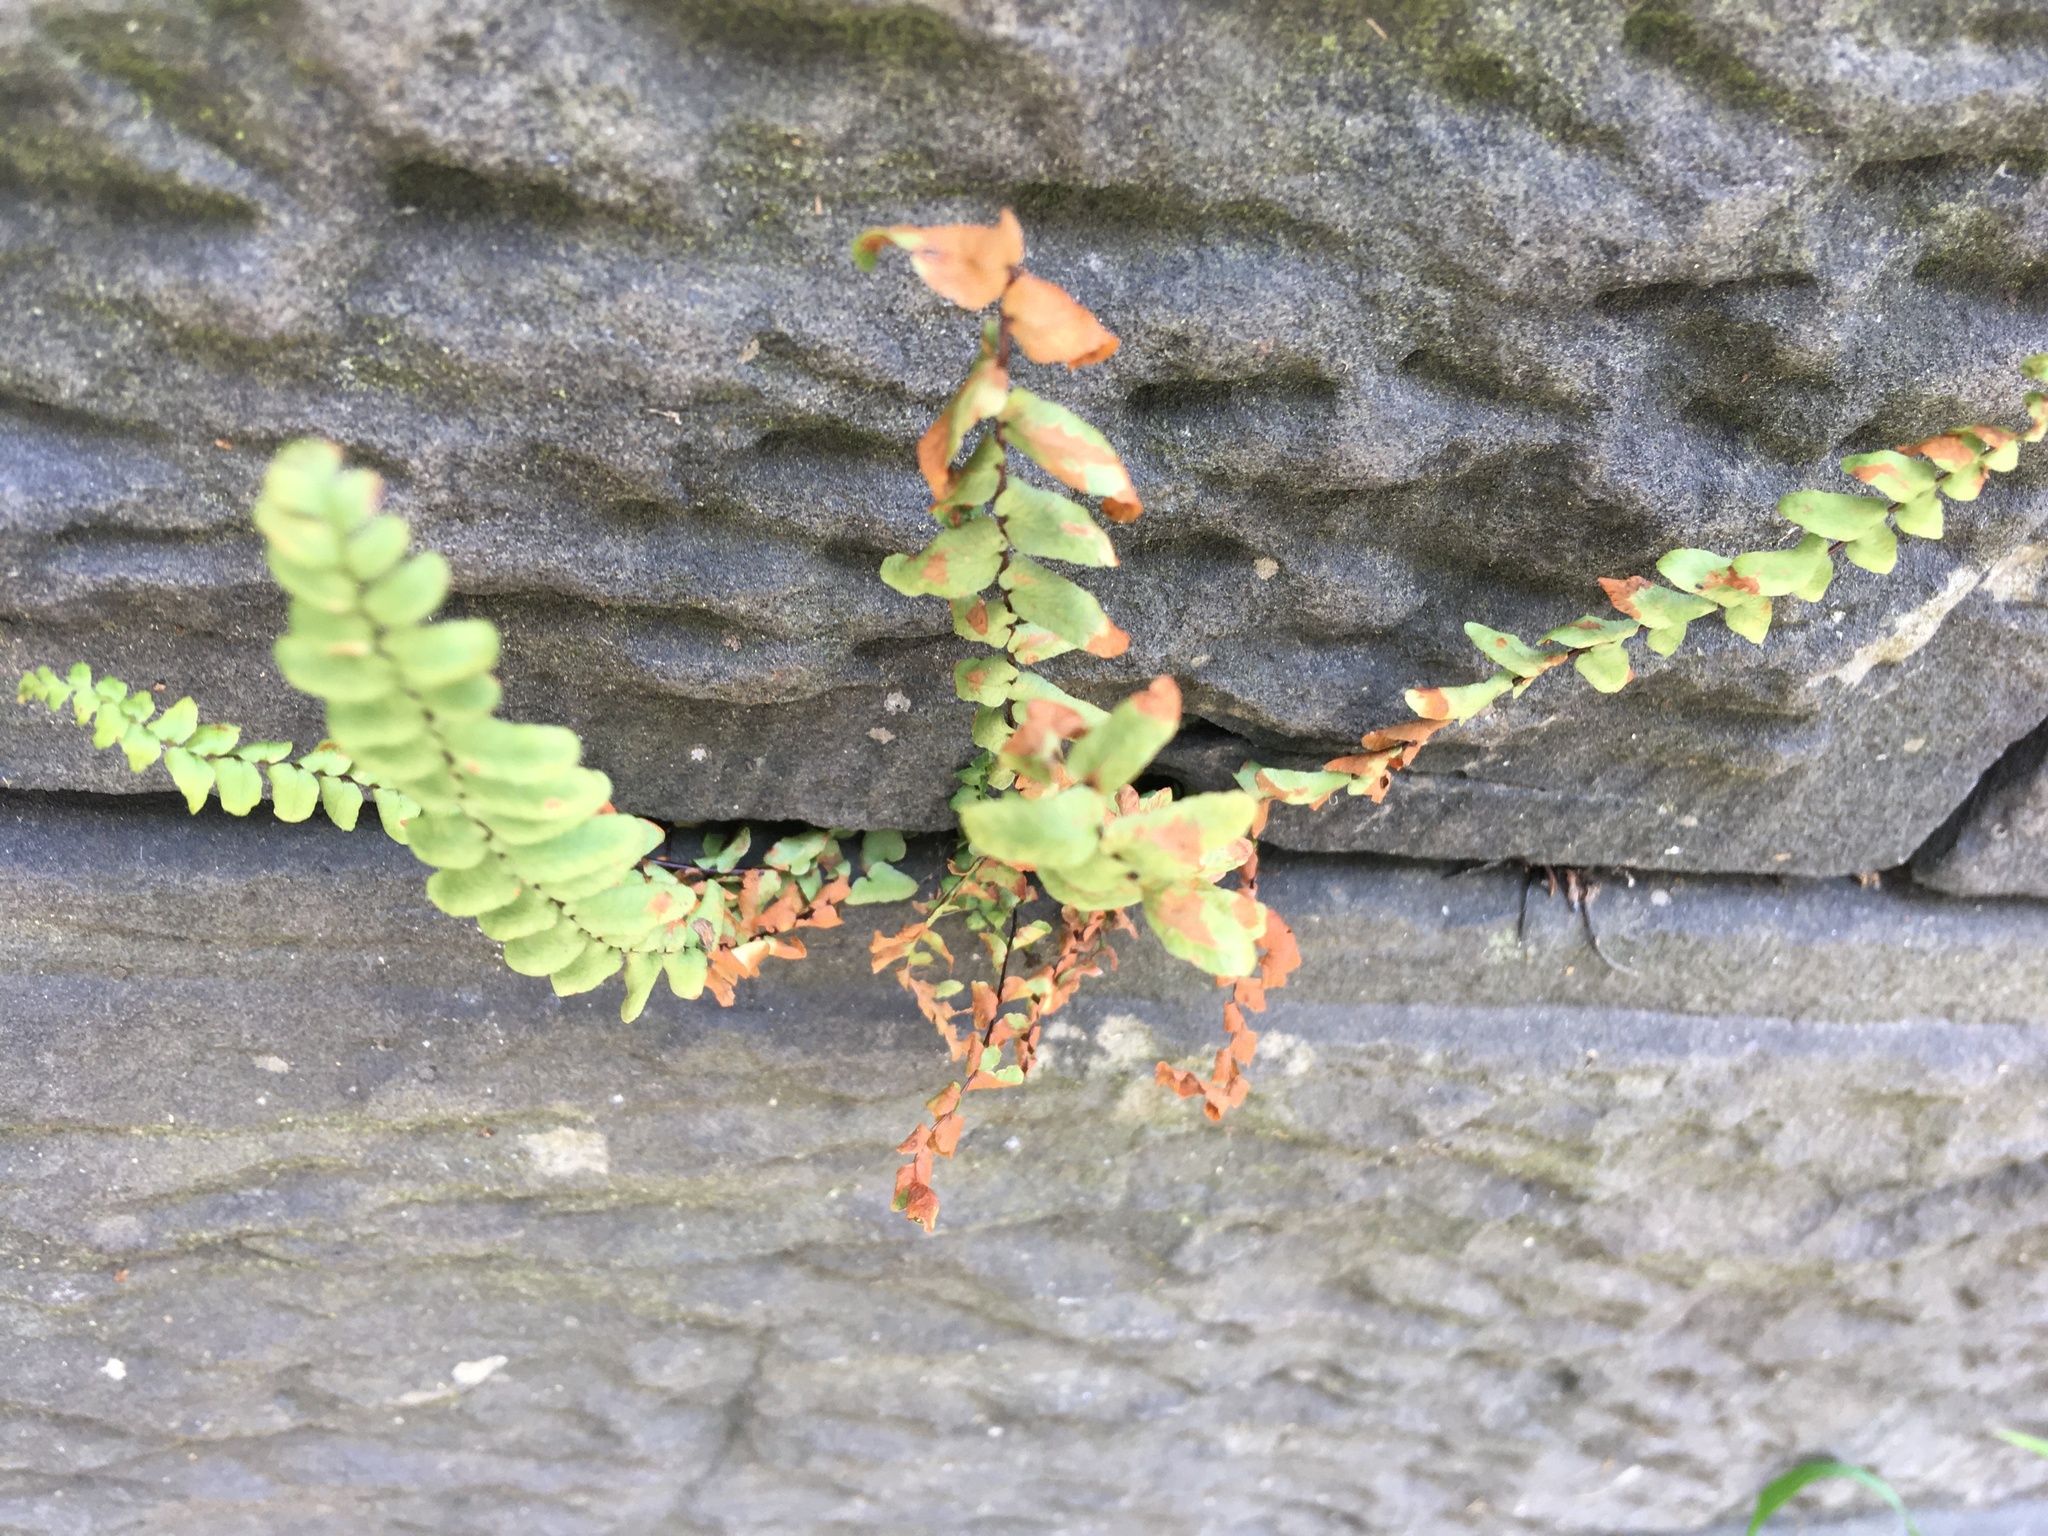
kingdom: Plantae
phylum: Tracheophyta
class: Polypodiopsida
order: Polypodiales
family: Aspleniaceae
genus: Asplenium
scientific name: Asplenium platyneuron
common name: Ebony spleenwort
